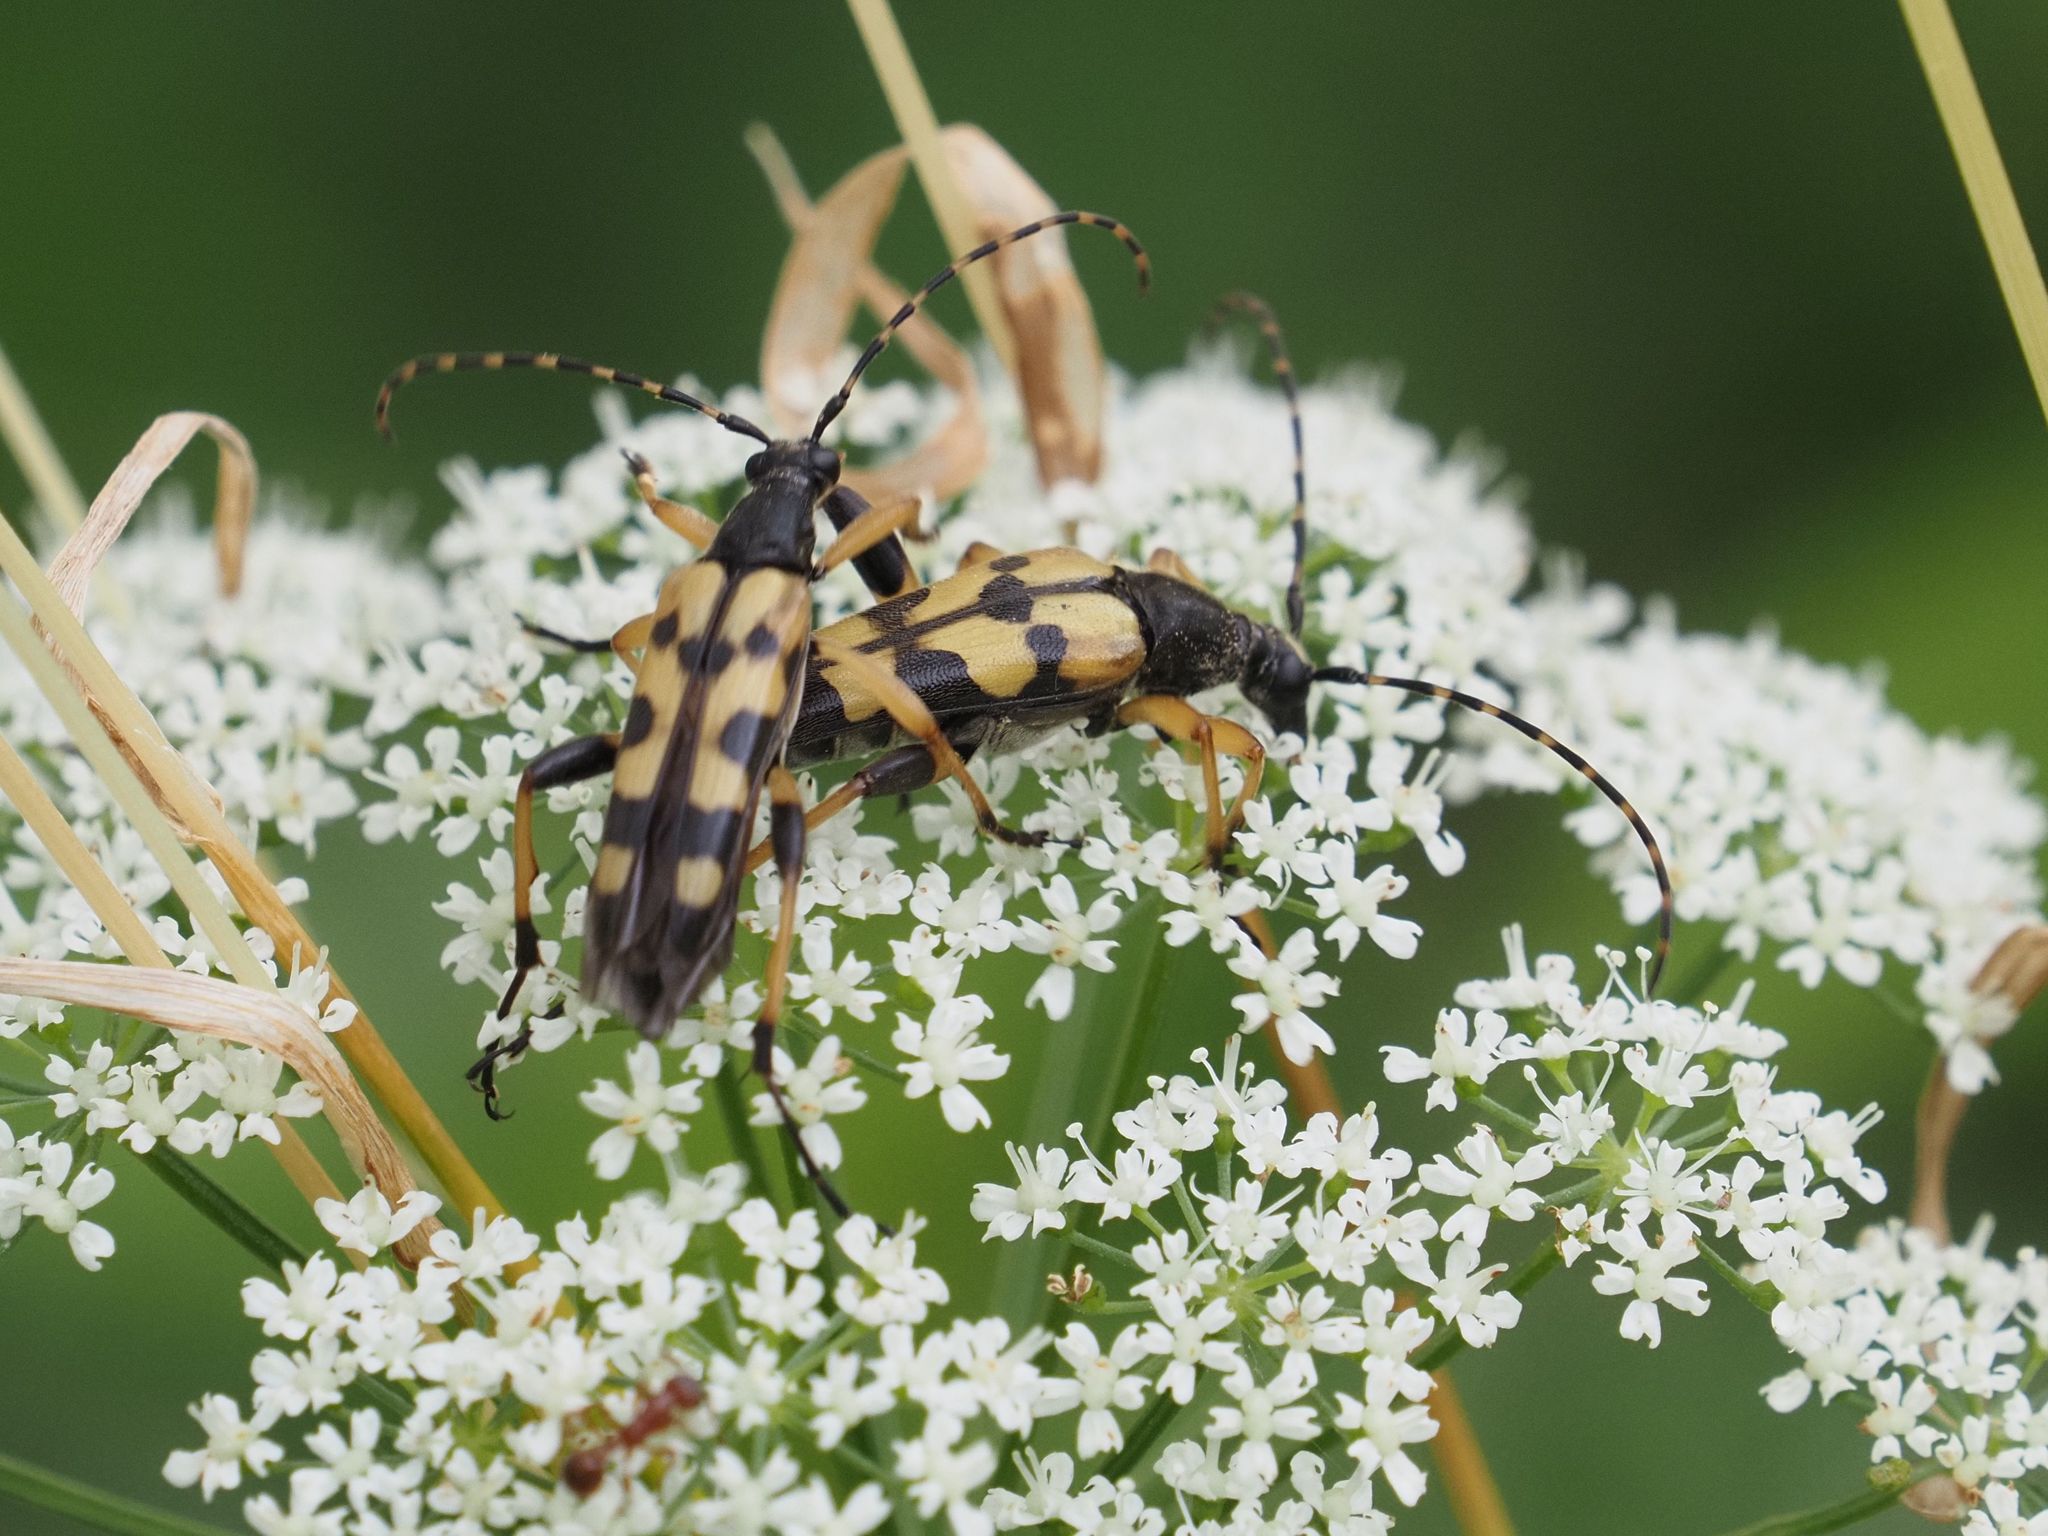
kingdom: Animalia
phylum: Arthropoda
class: Insecta
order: Coleoptera
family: Cerambycidae
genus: Rutpela
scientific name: Rutpela maculata
